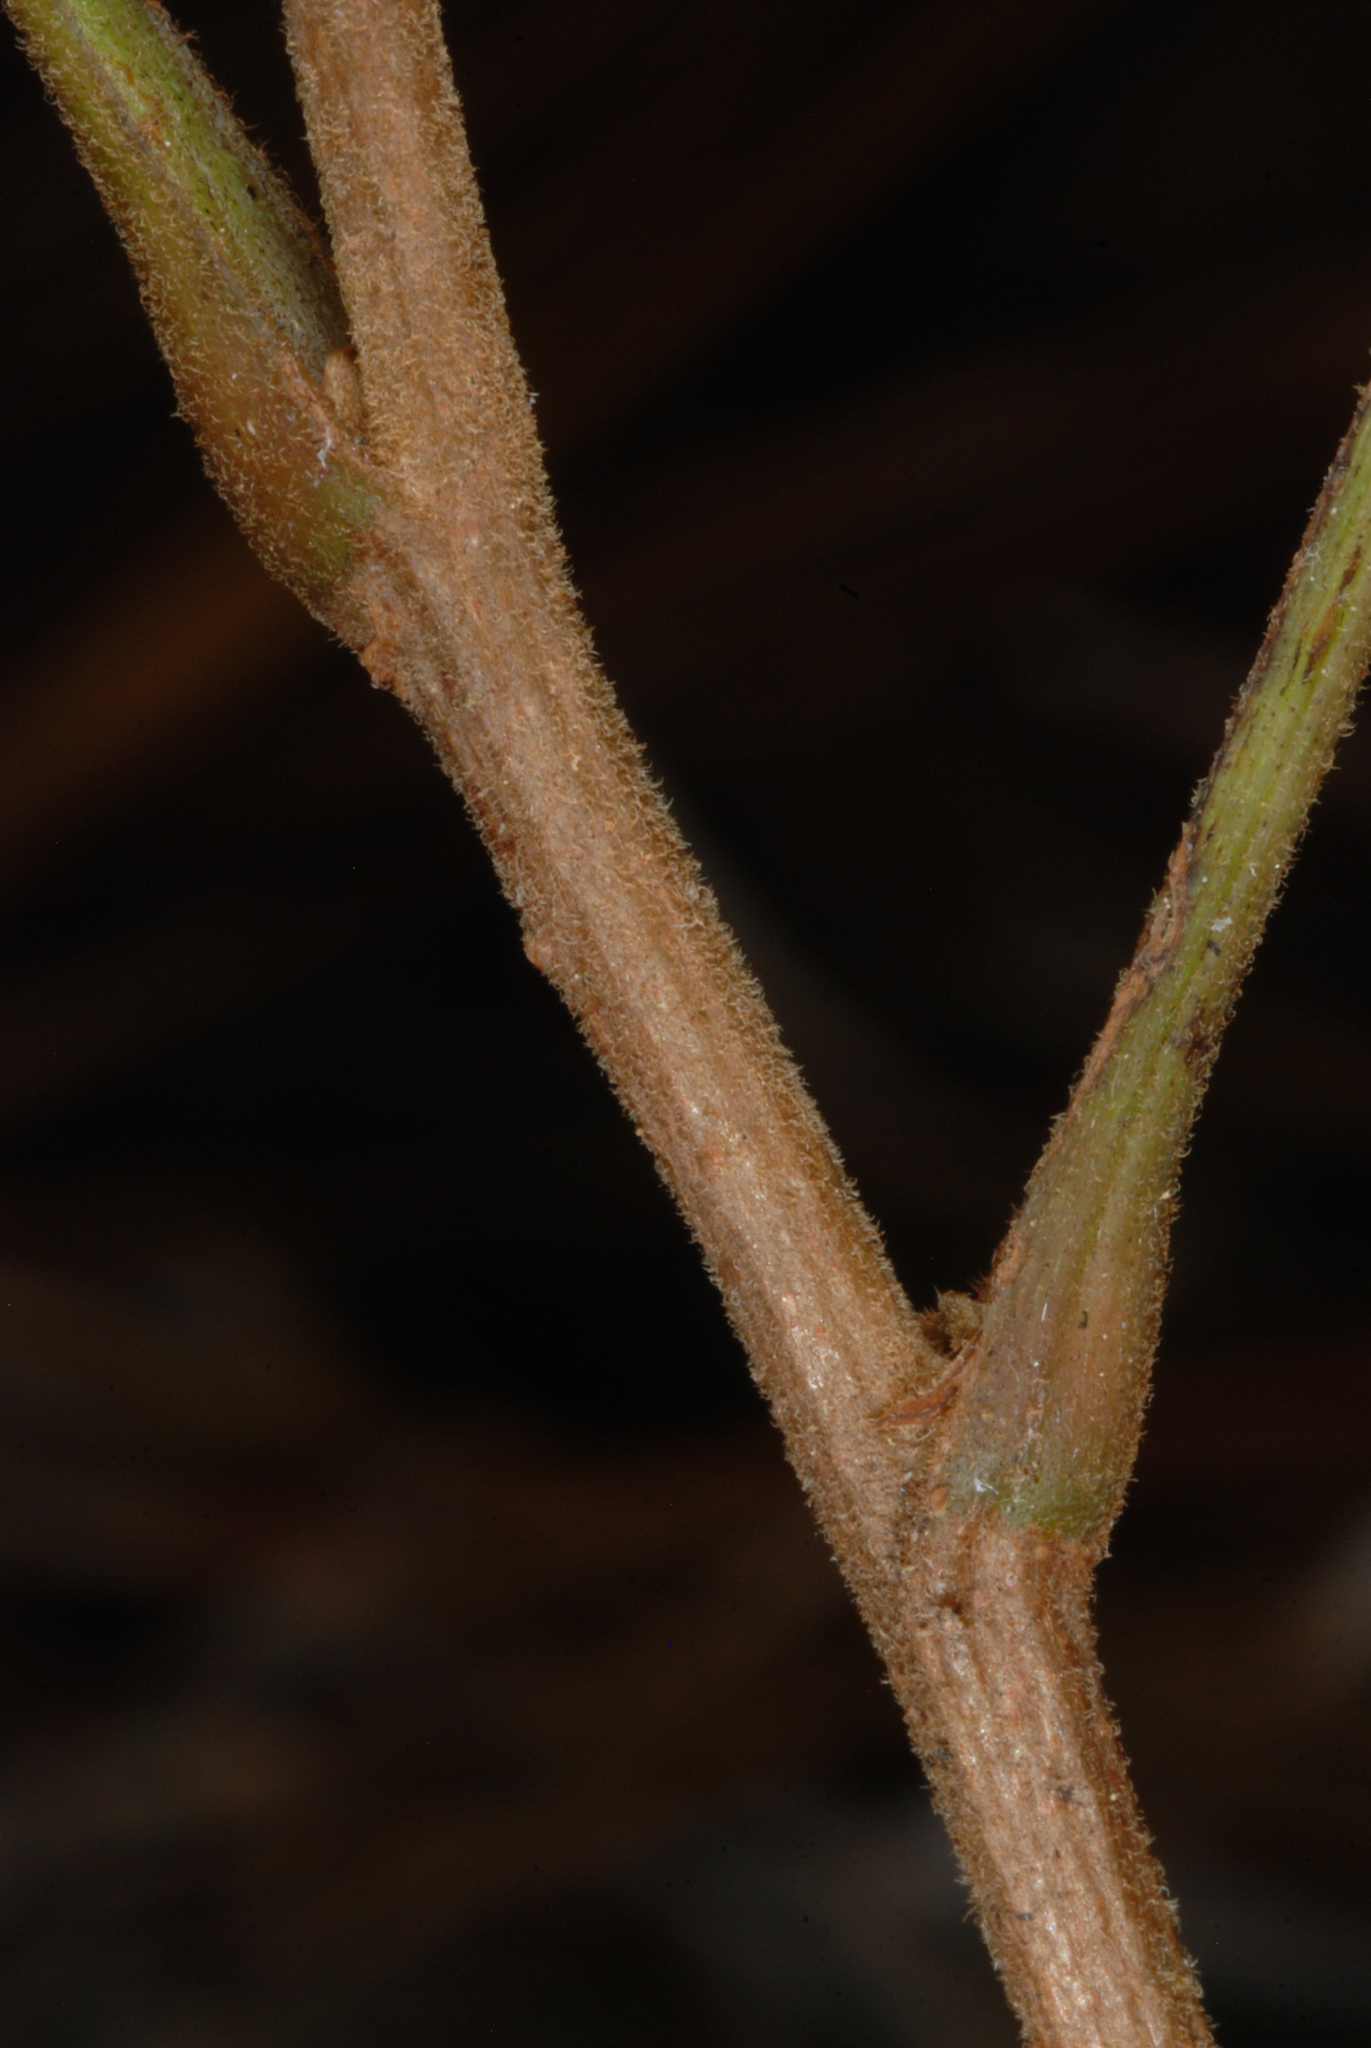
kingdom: Plantae
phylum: Tracheophyta
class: Magnoliopsida
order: Sapindales
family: Anacardiaceae
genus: Toxicodendron
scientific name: Toxicodendron pubescens
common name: Eastern poison-oak
